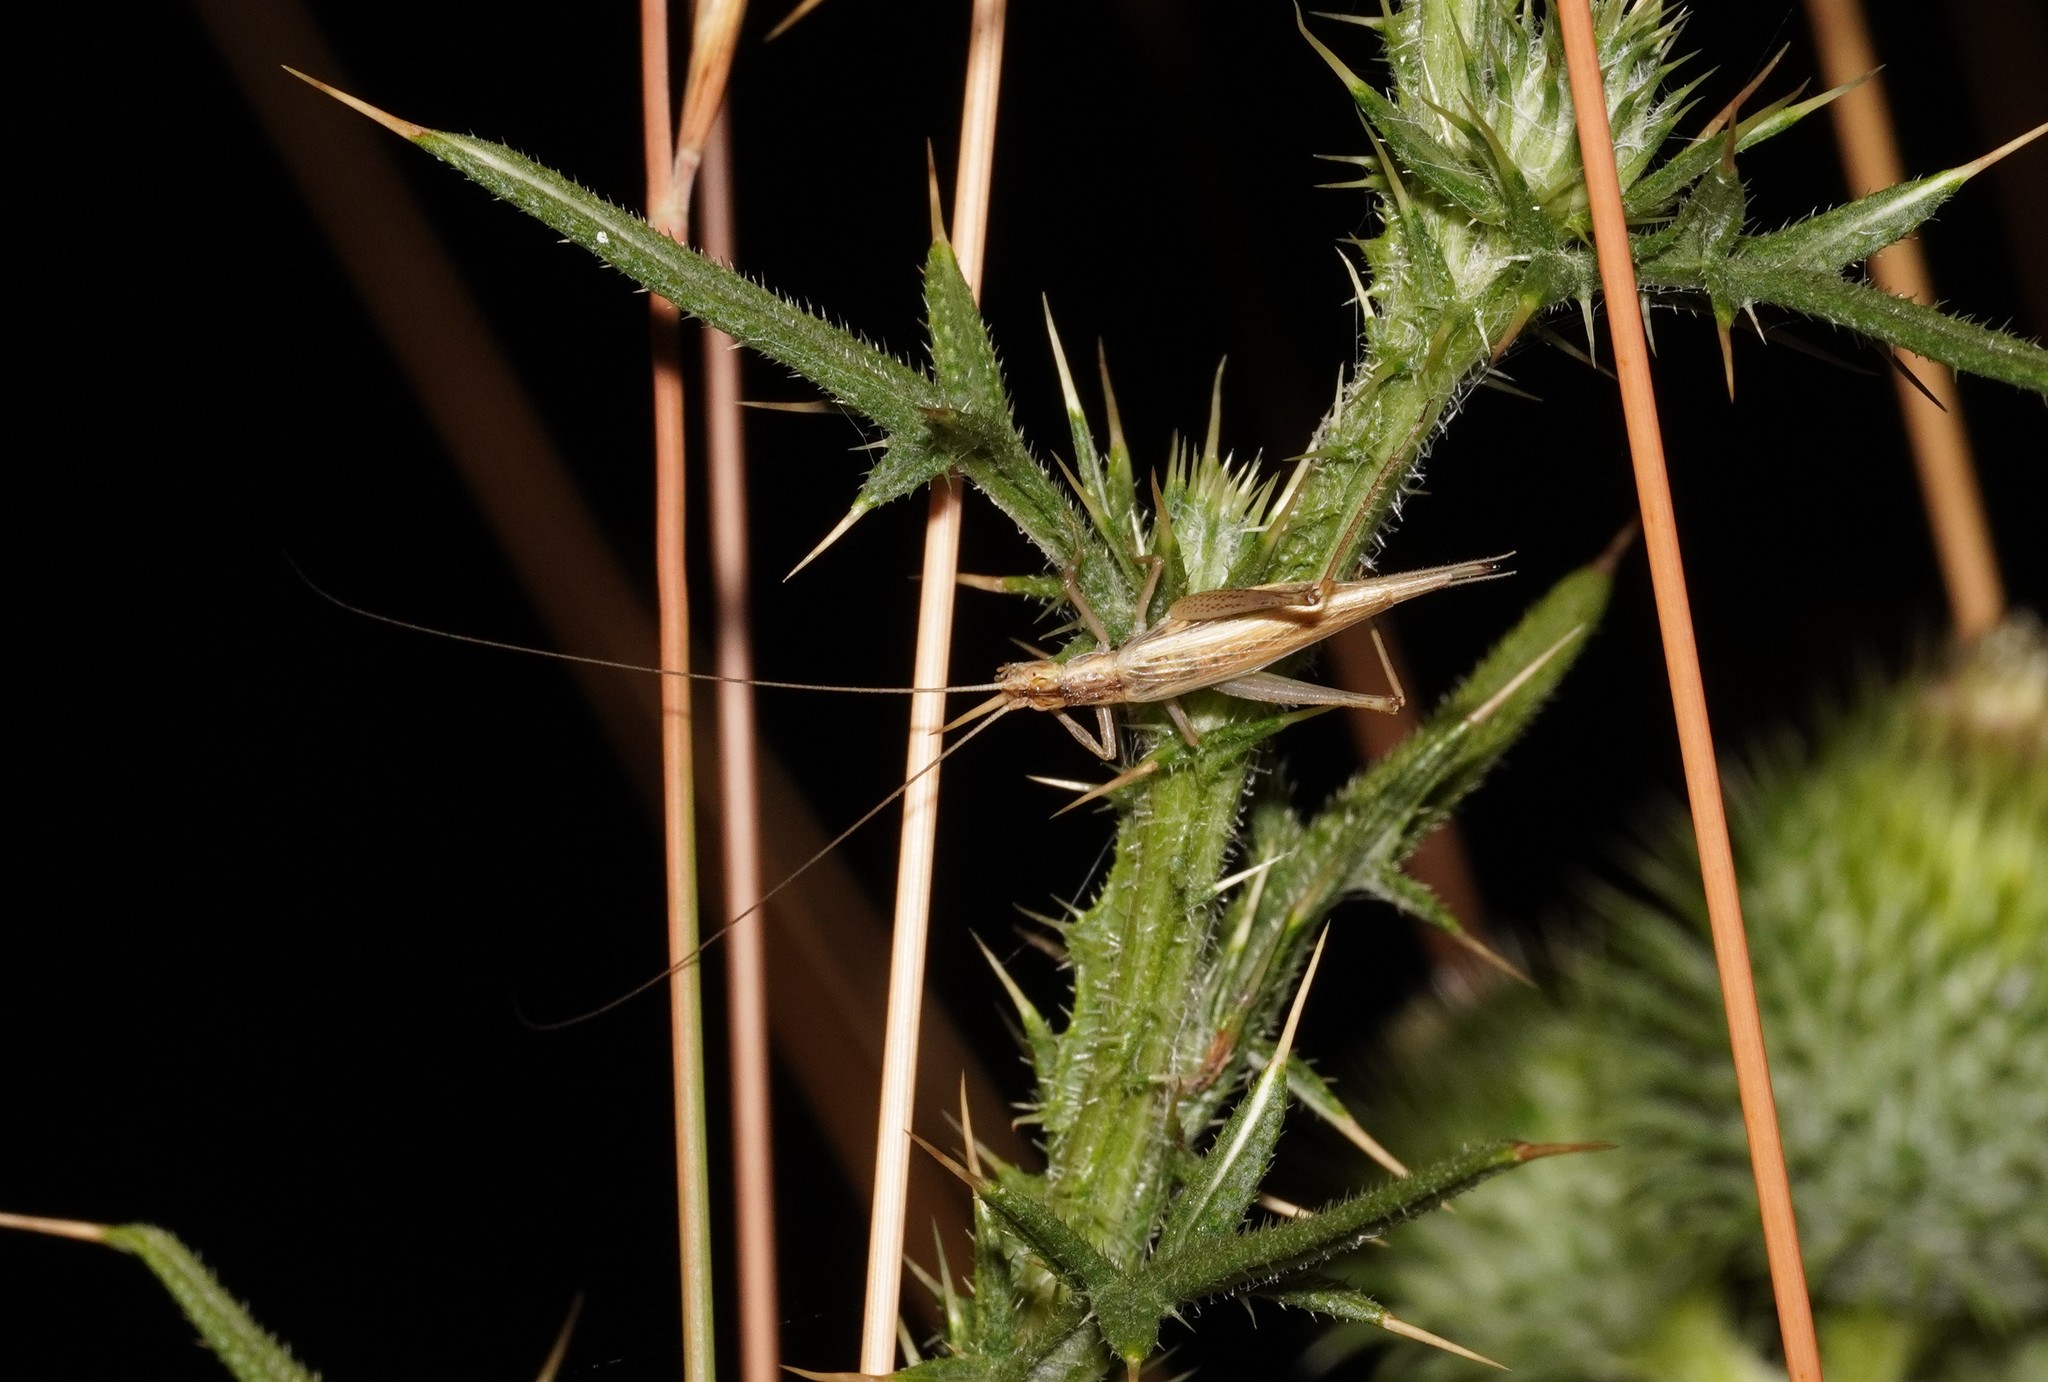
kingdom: Animalia
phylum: Arthropoda
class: Insecta
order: Orthoptera
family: Gryllidae
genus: Oecanthus
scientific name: Oecanthus pellucens
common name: Tree-cricket
